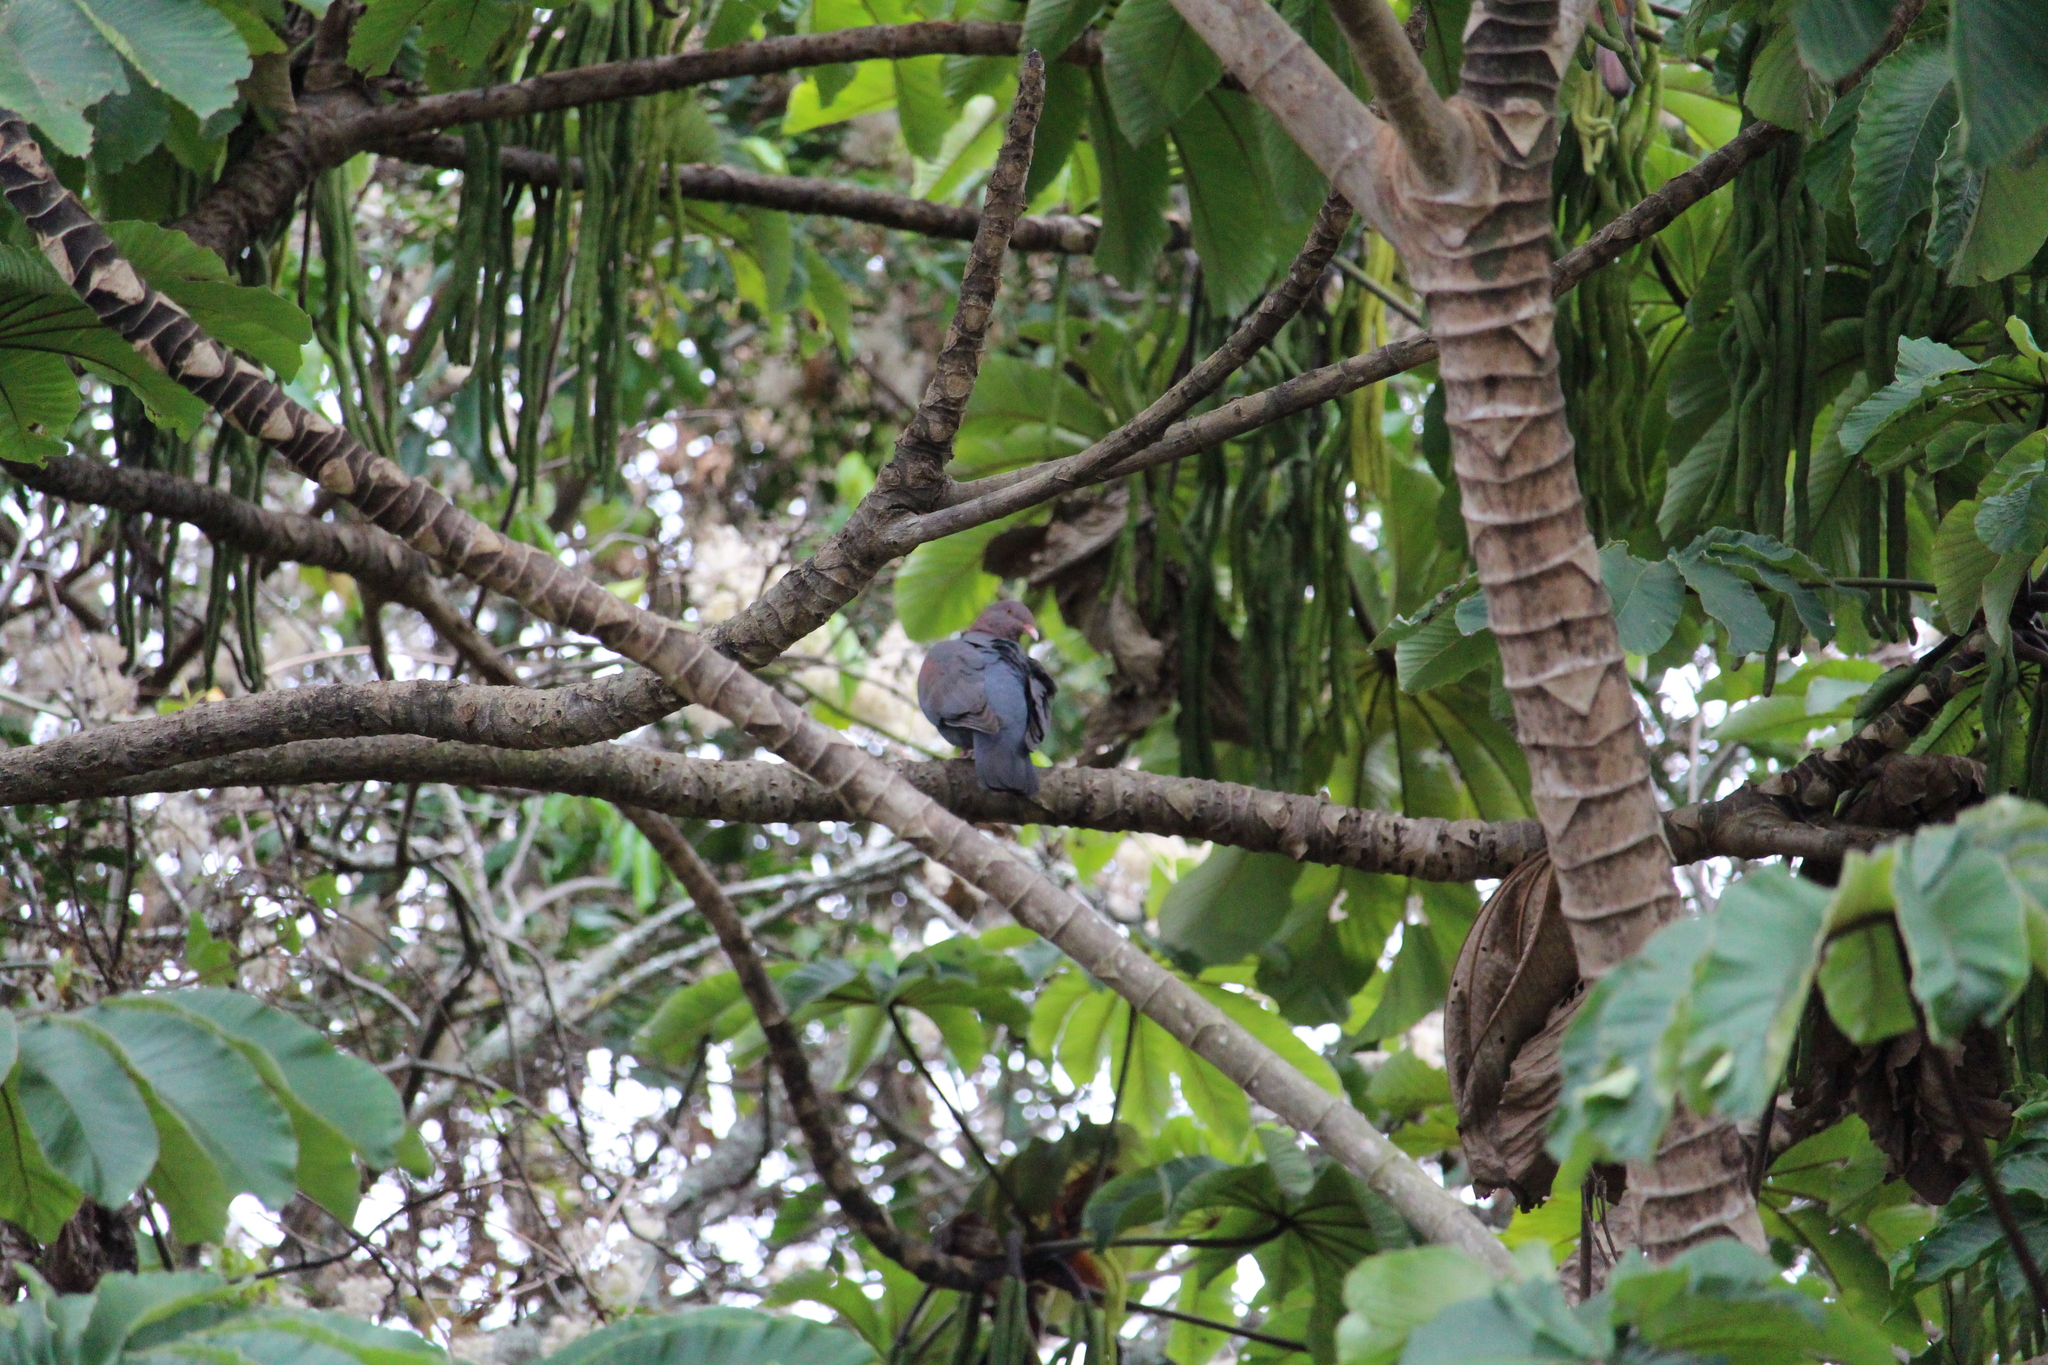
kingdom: Animalia
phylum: Chordata
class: Aves
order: Columbiformes
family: Columbidae
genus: Patagioenas
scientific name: Patagioenas flavirostris
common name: Red-billed pigeon
